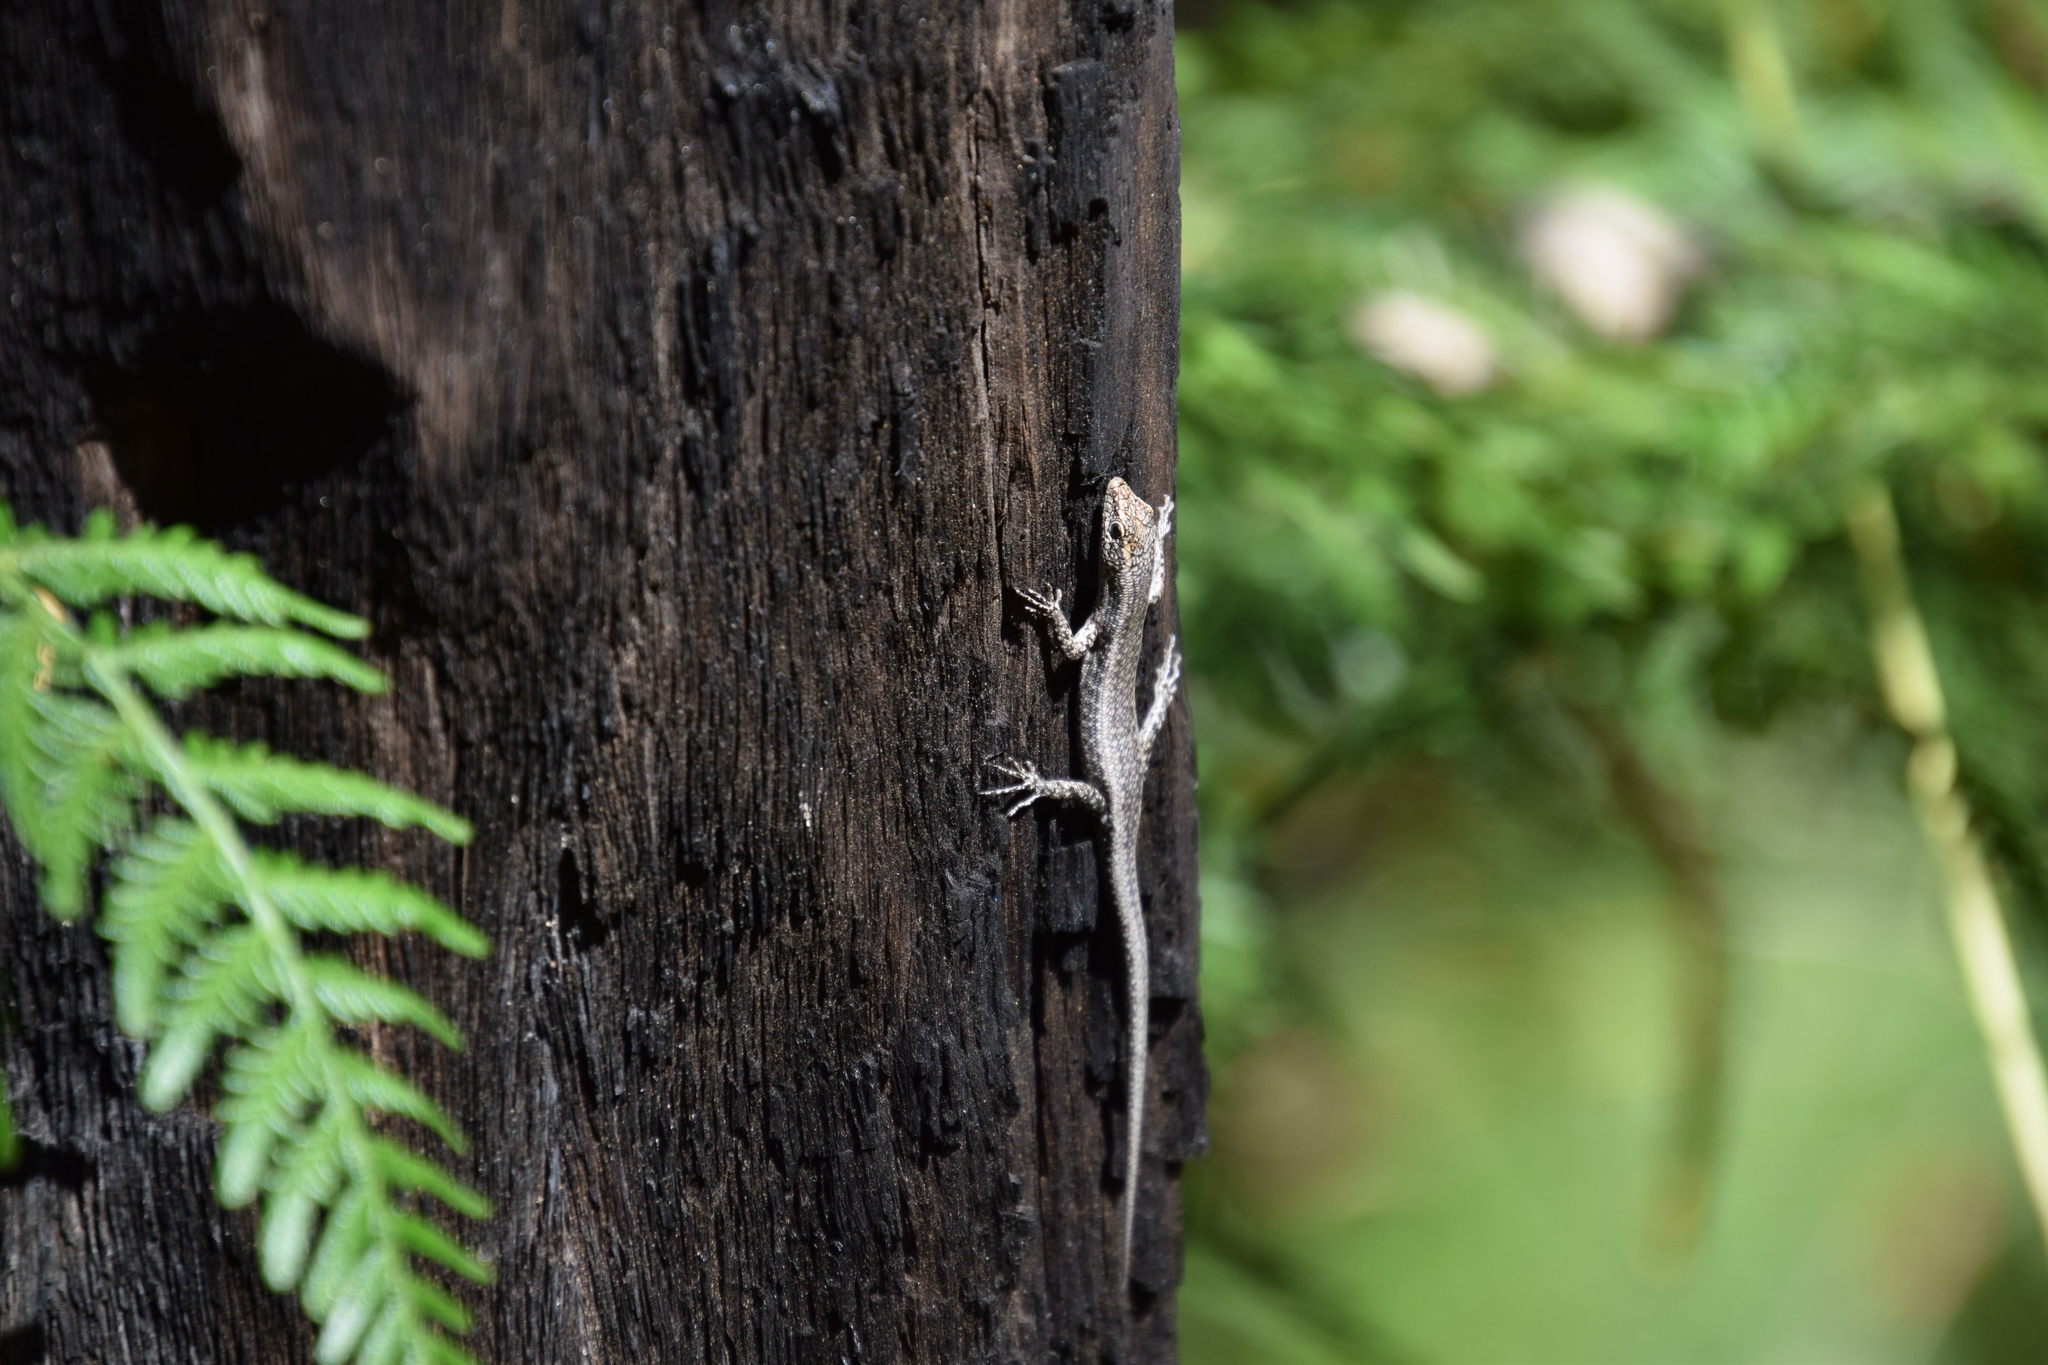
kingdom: Animalia
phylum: Chordata
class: Squamata
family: Scincidae
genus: Cryptoblepharus
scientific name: Cryptoblepharus buchananii
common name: Buchanan's snake-eyed skink
